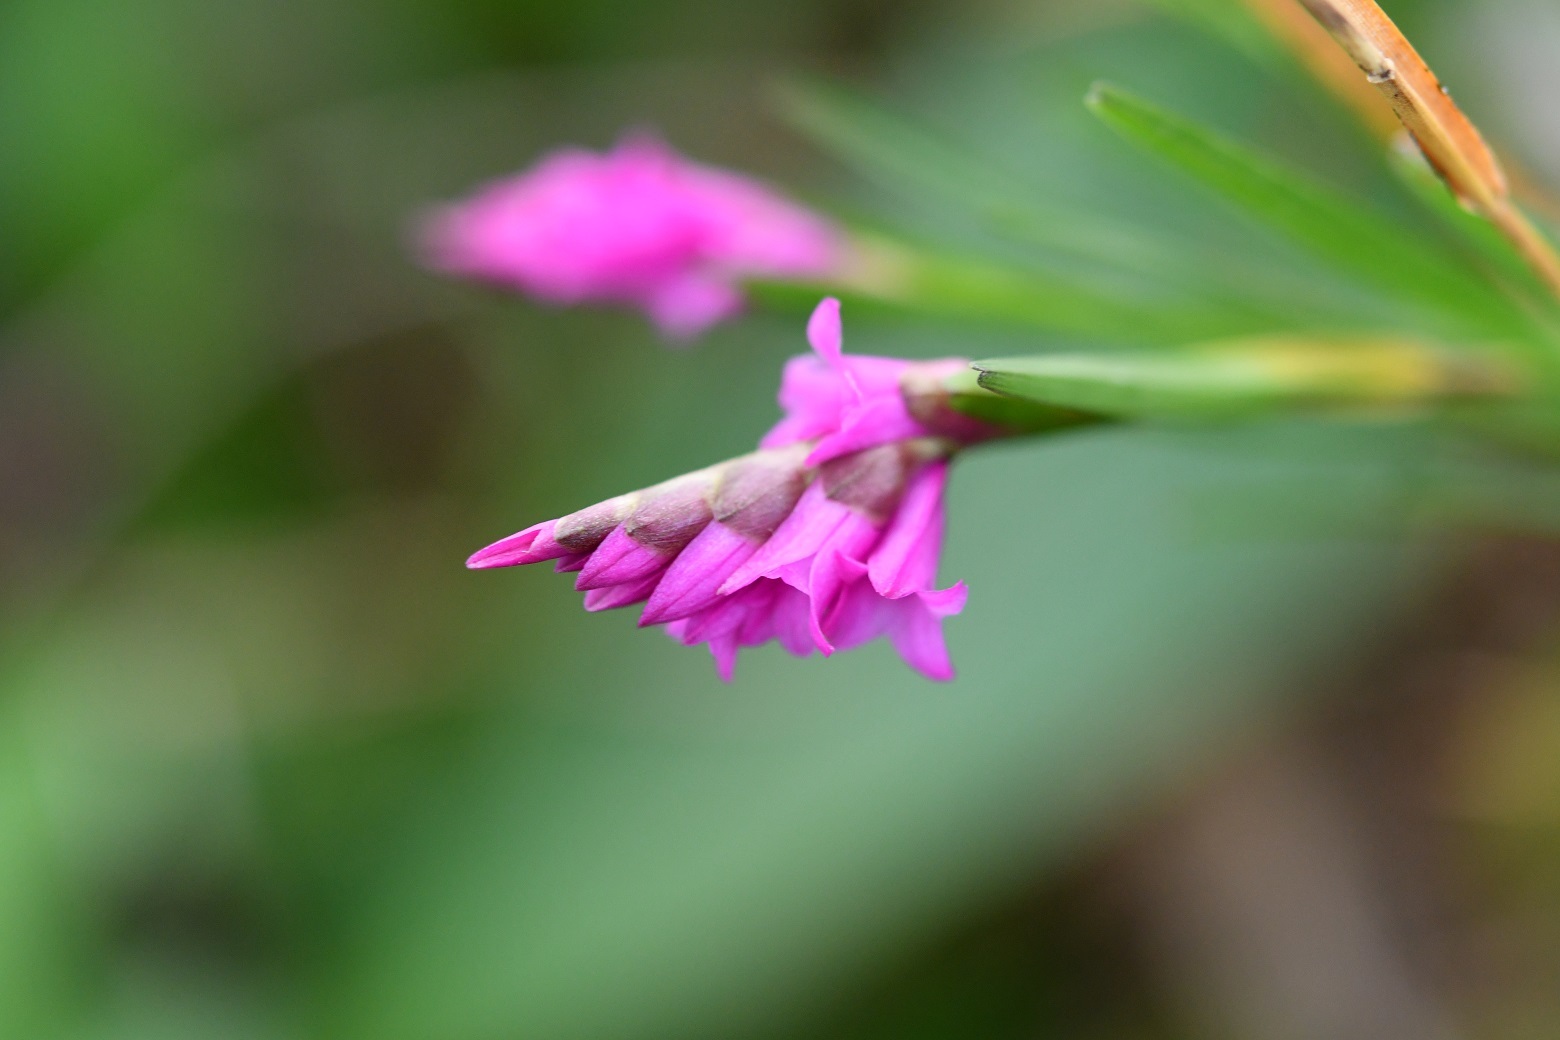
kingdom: Plantae
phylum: Tracheophyta
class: Liliopsida
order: Asparagales
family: Orchidaceae
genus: Isochilus
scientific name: Isochilus latibracteatus
